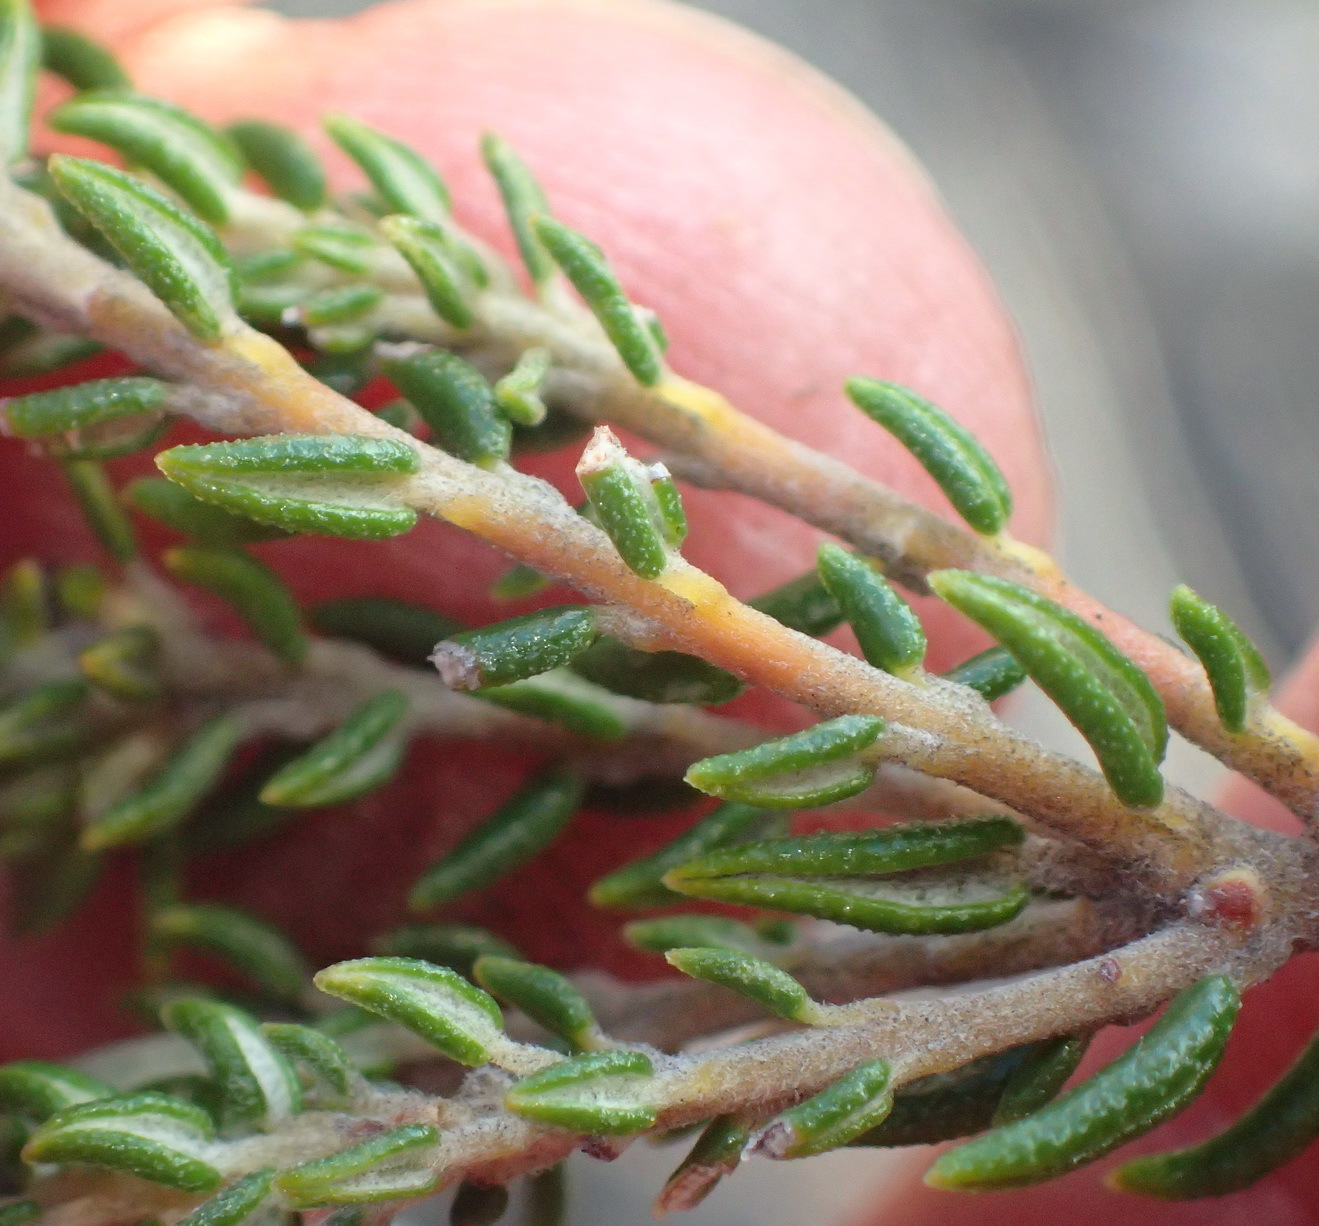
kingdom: Plantae
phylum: Tracheophyta
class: Magnoliopsida
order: Rosales
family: Rhamnaceae
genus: Phylica
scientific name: Phylica lanata
